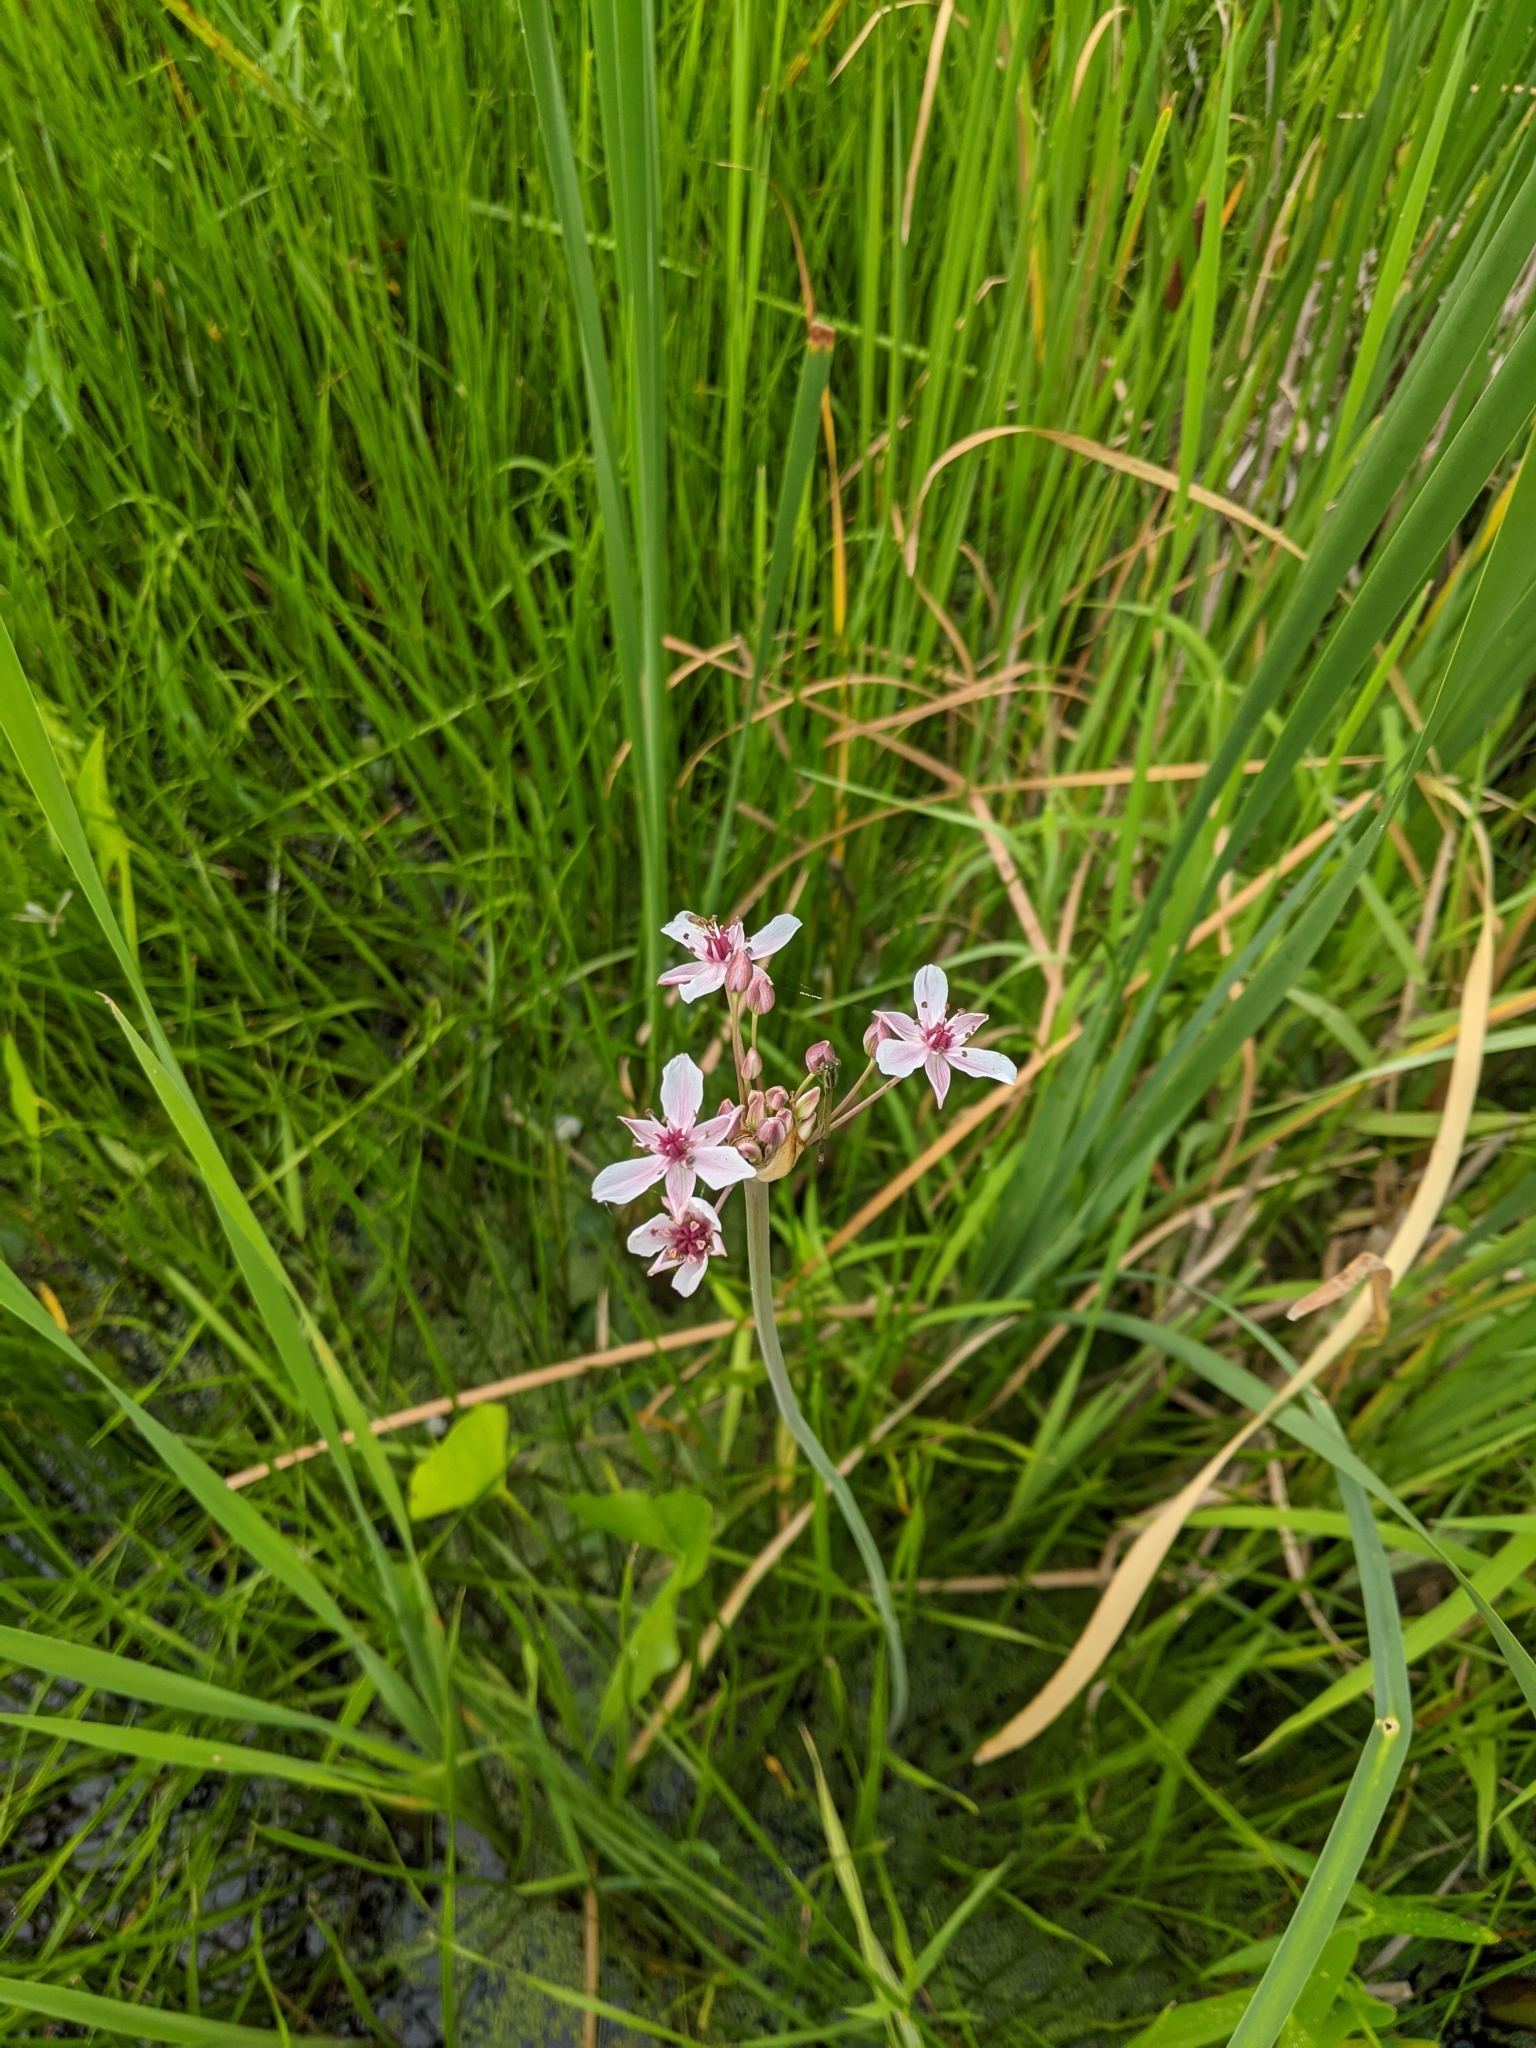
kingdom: Plantae
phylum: Tracheophyta
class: Liliopsida
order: Alismatales
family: Butomaceae
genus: Butomus
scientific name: Butomus umbellatus
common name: Flowering-rush
